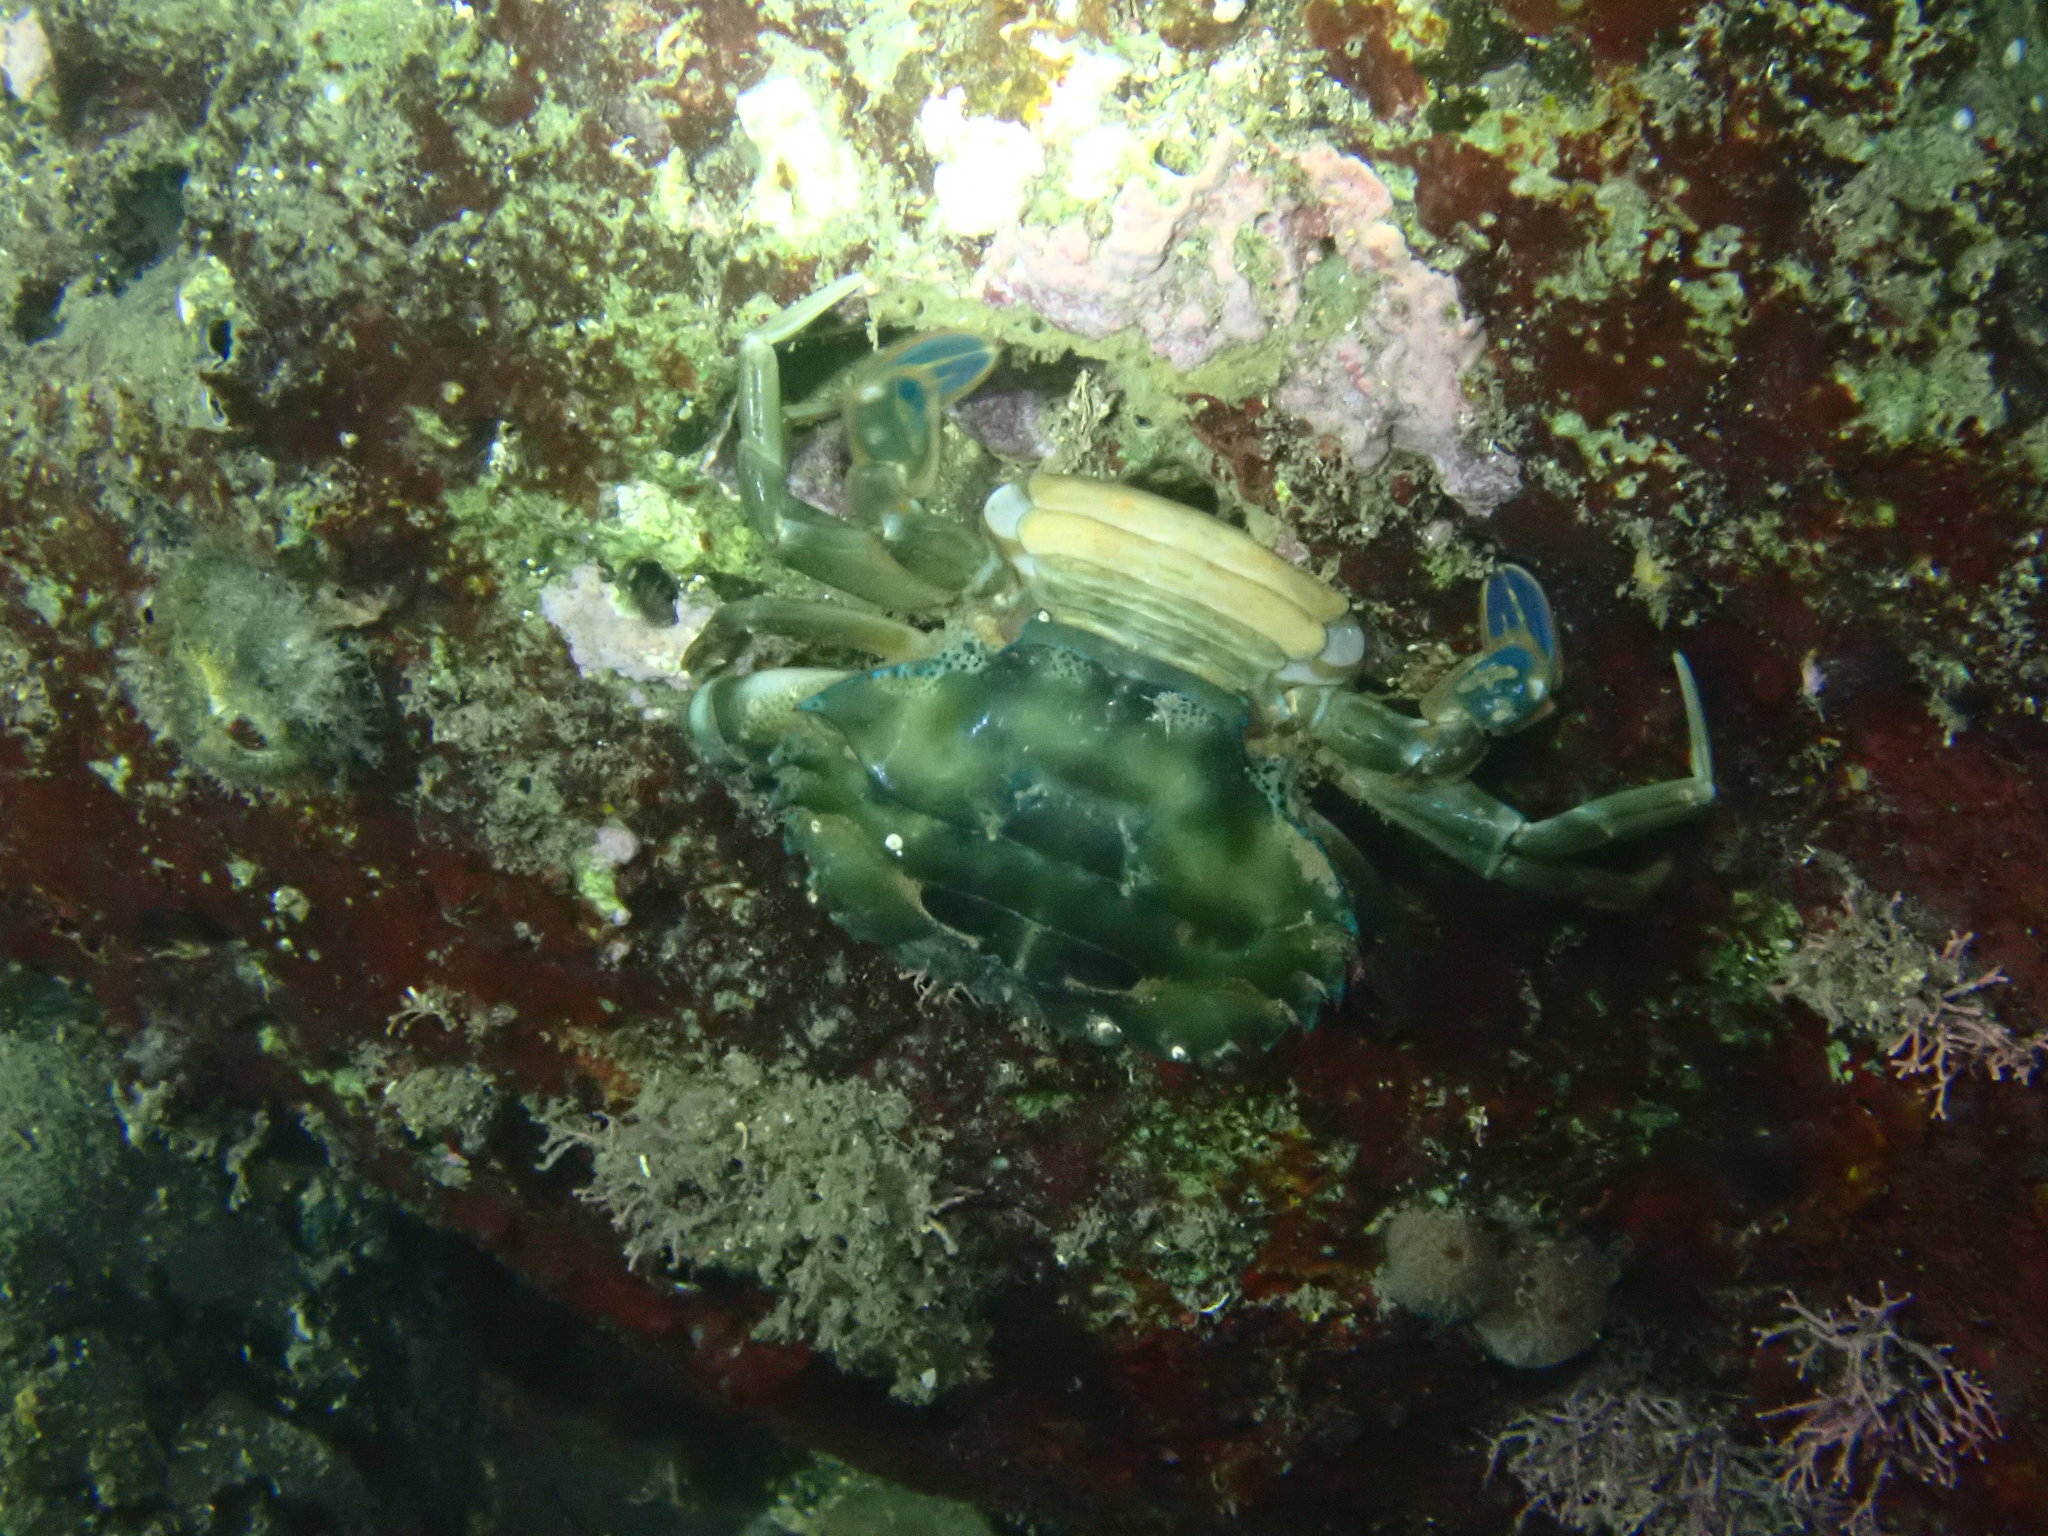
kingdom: Animalia
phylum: Arthropoda
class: Malacostraca
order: Decapoda
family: Portunidae
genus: Thalamita
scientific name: Thalamita prymna
